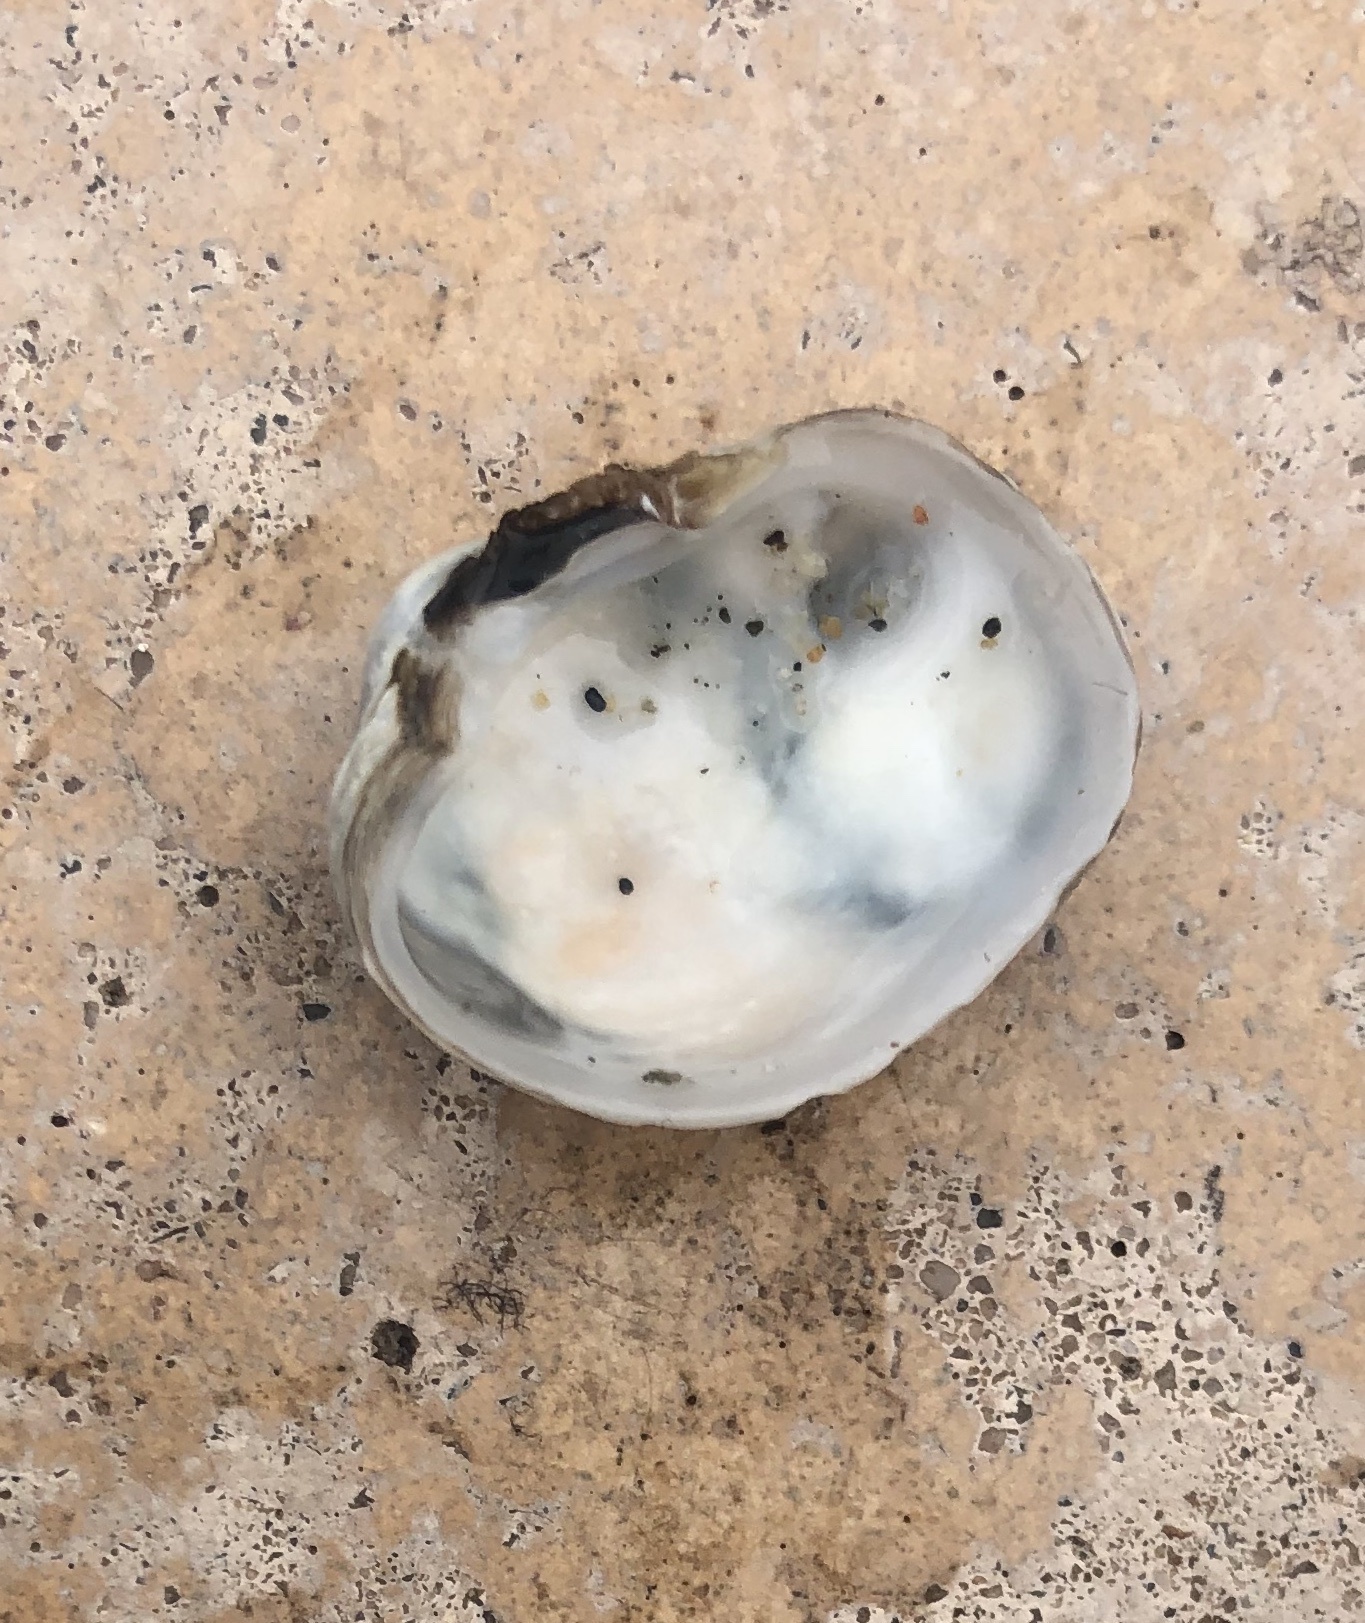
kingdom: Animalia
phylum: Mollusca
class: Bivalvia
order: Venerida
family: Veneridae
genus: Petricola
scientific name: Petricola carditoides
